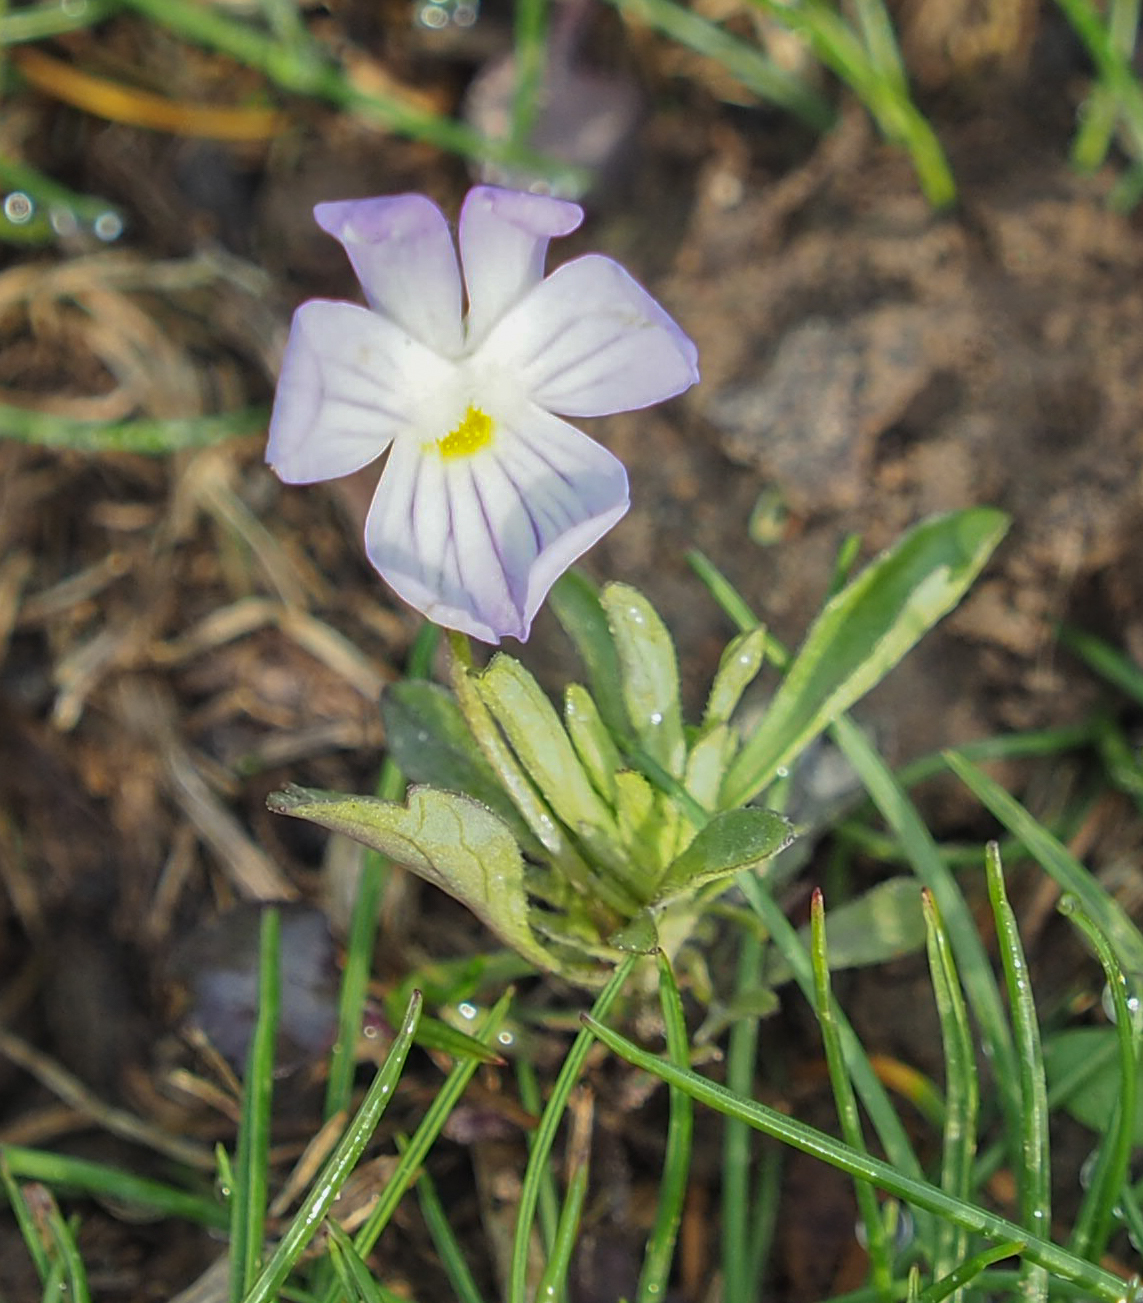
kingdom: Plantae
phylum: Tracheophyta
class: Magnoliopsida
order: Malpighiales
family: Violaceae
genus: Viola
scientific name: Viola rafinesquei
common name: American field pansy
